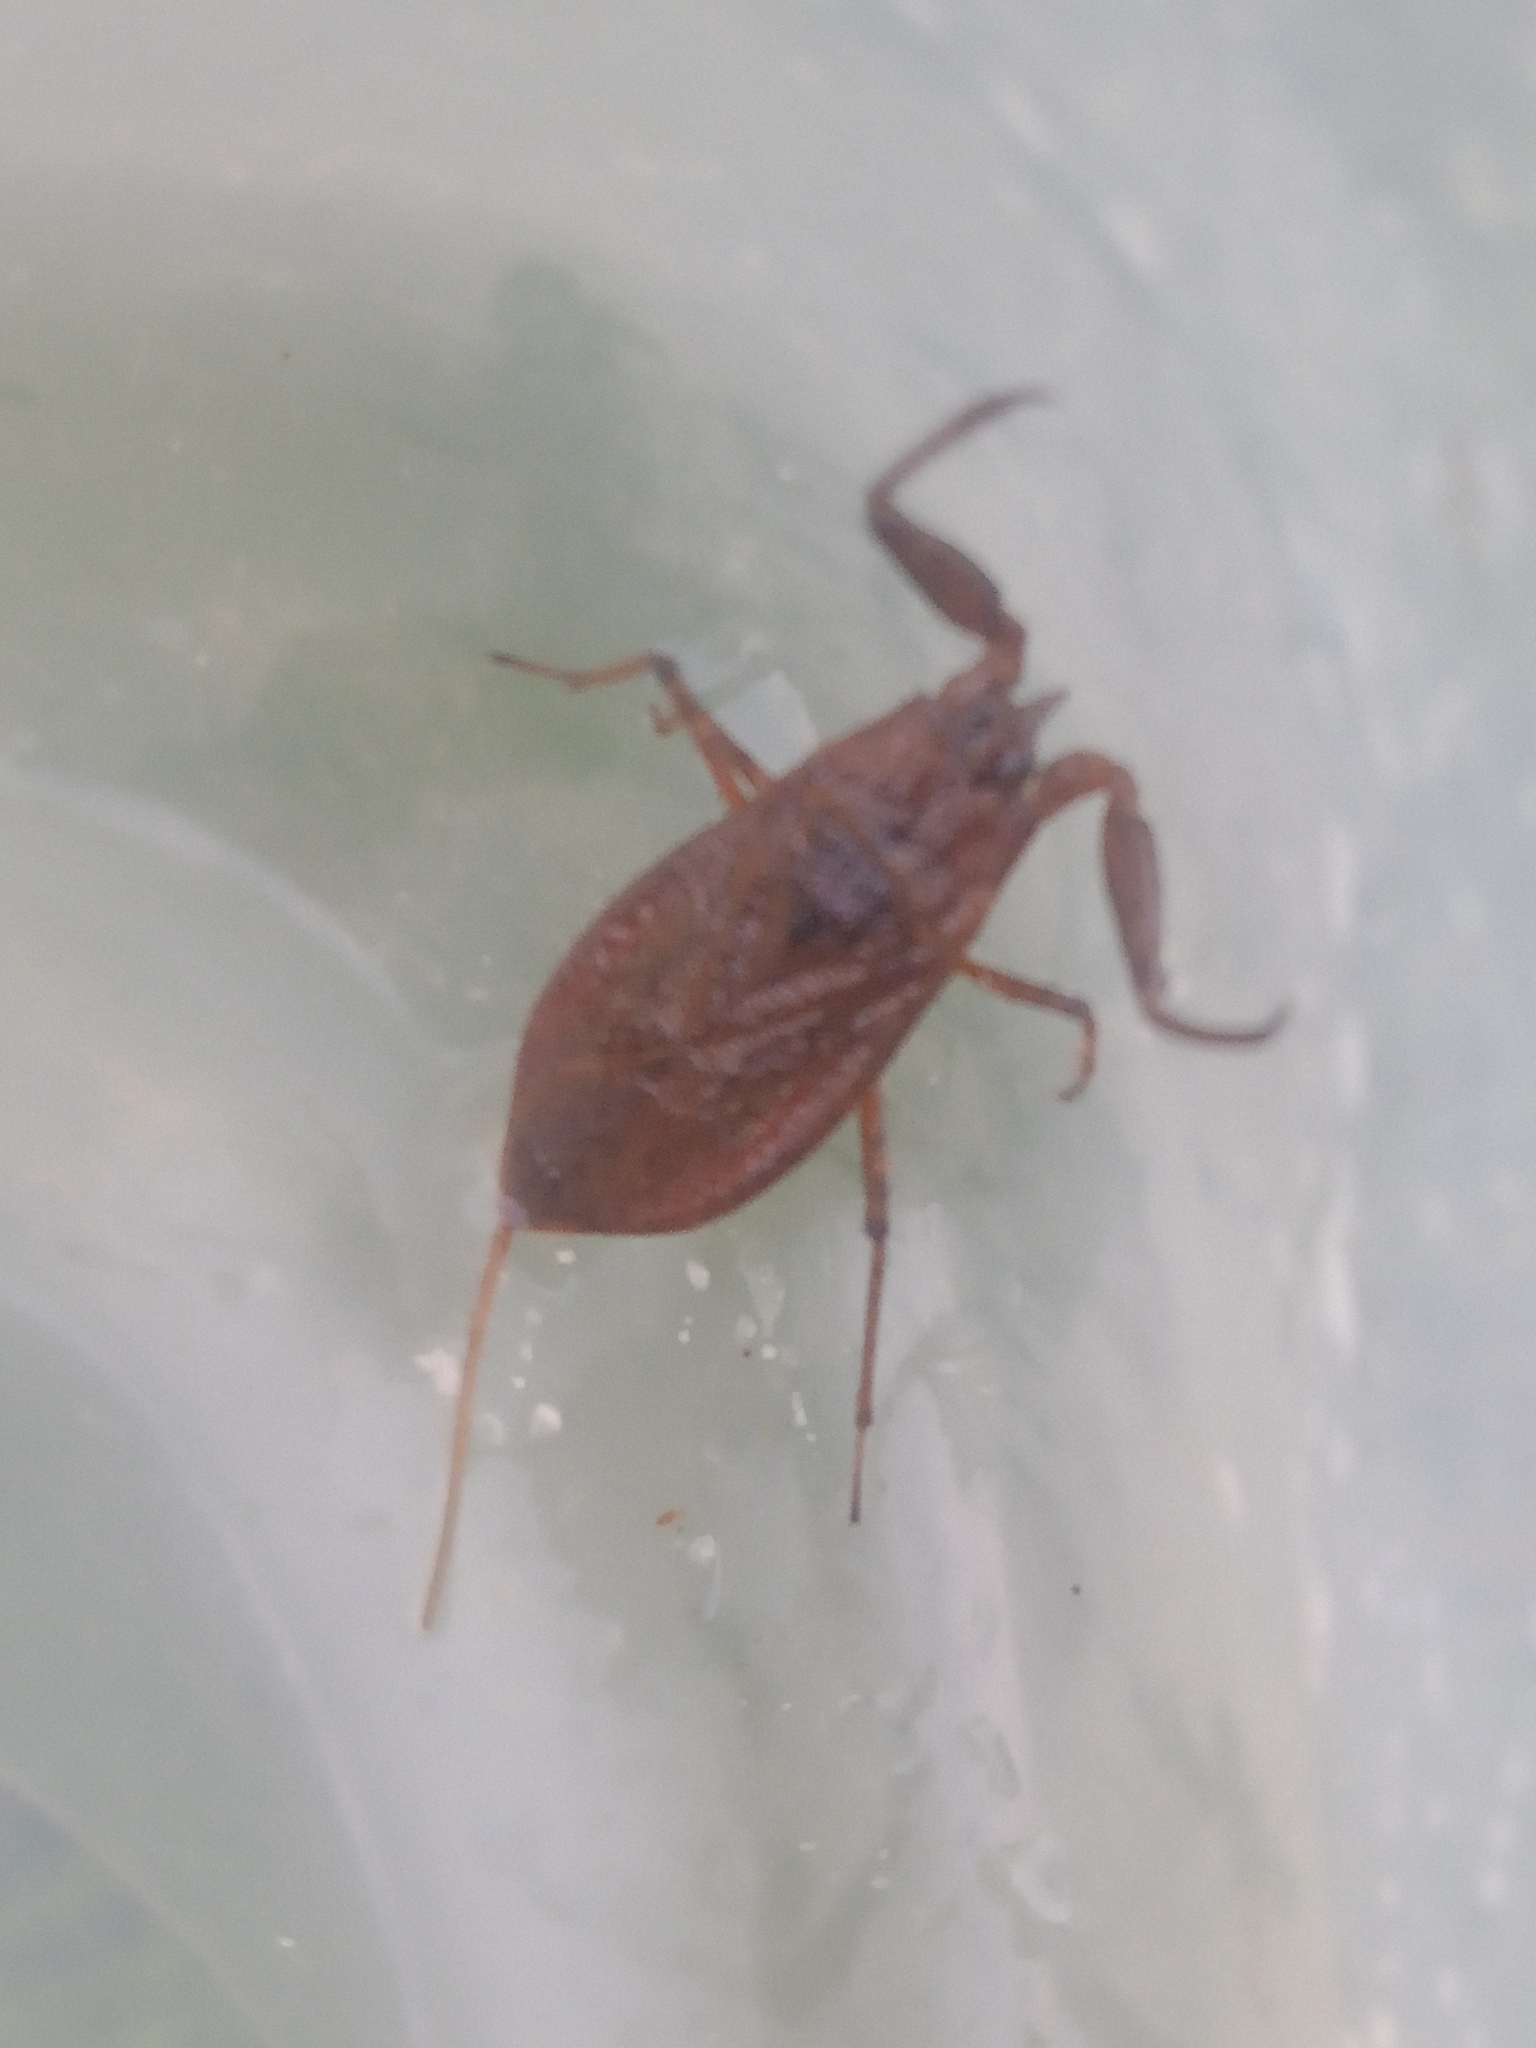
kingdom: Animalia
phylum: Arthropoda
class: Insecta
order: Hemiptera
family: Nepidae
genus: Nepa
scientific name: Nepa cinerea
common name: Water scorpion
